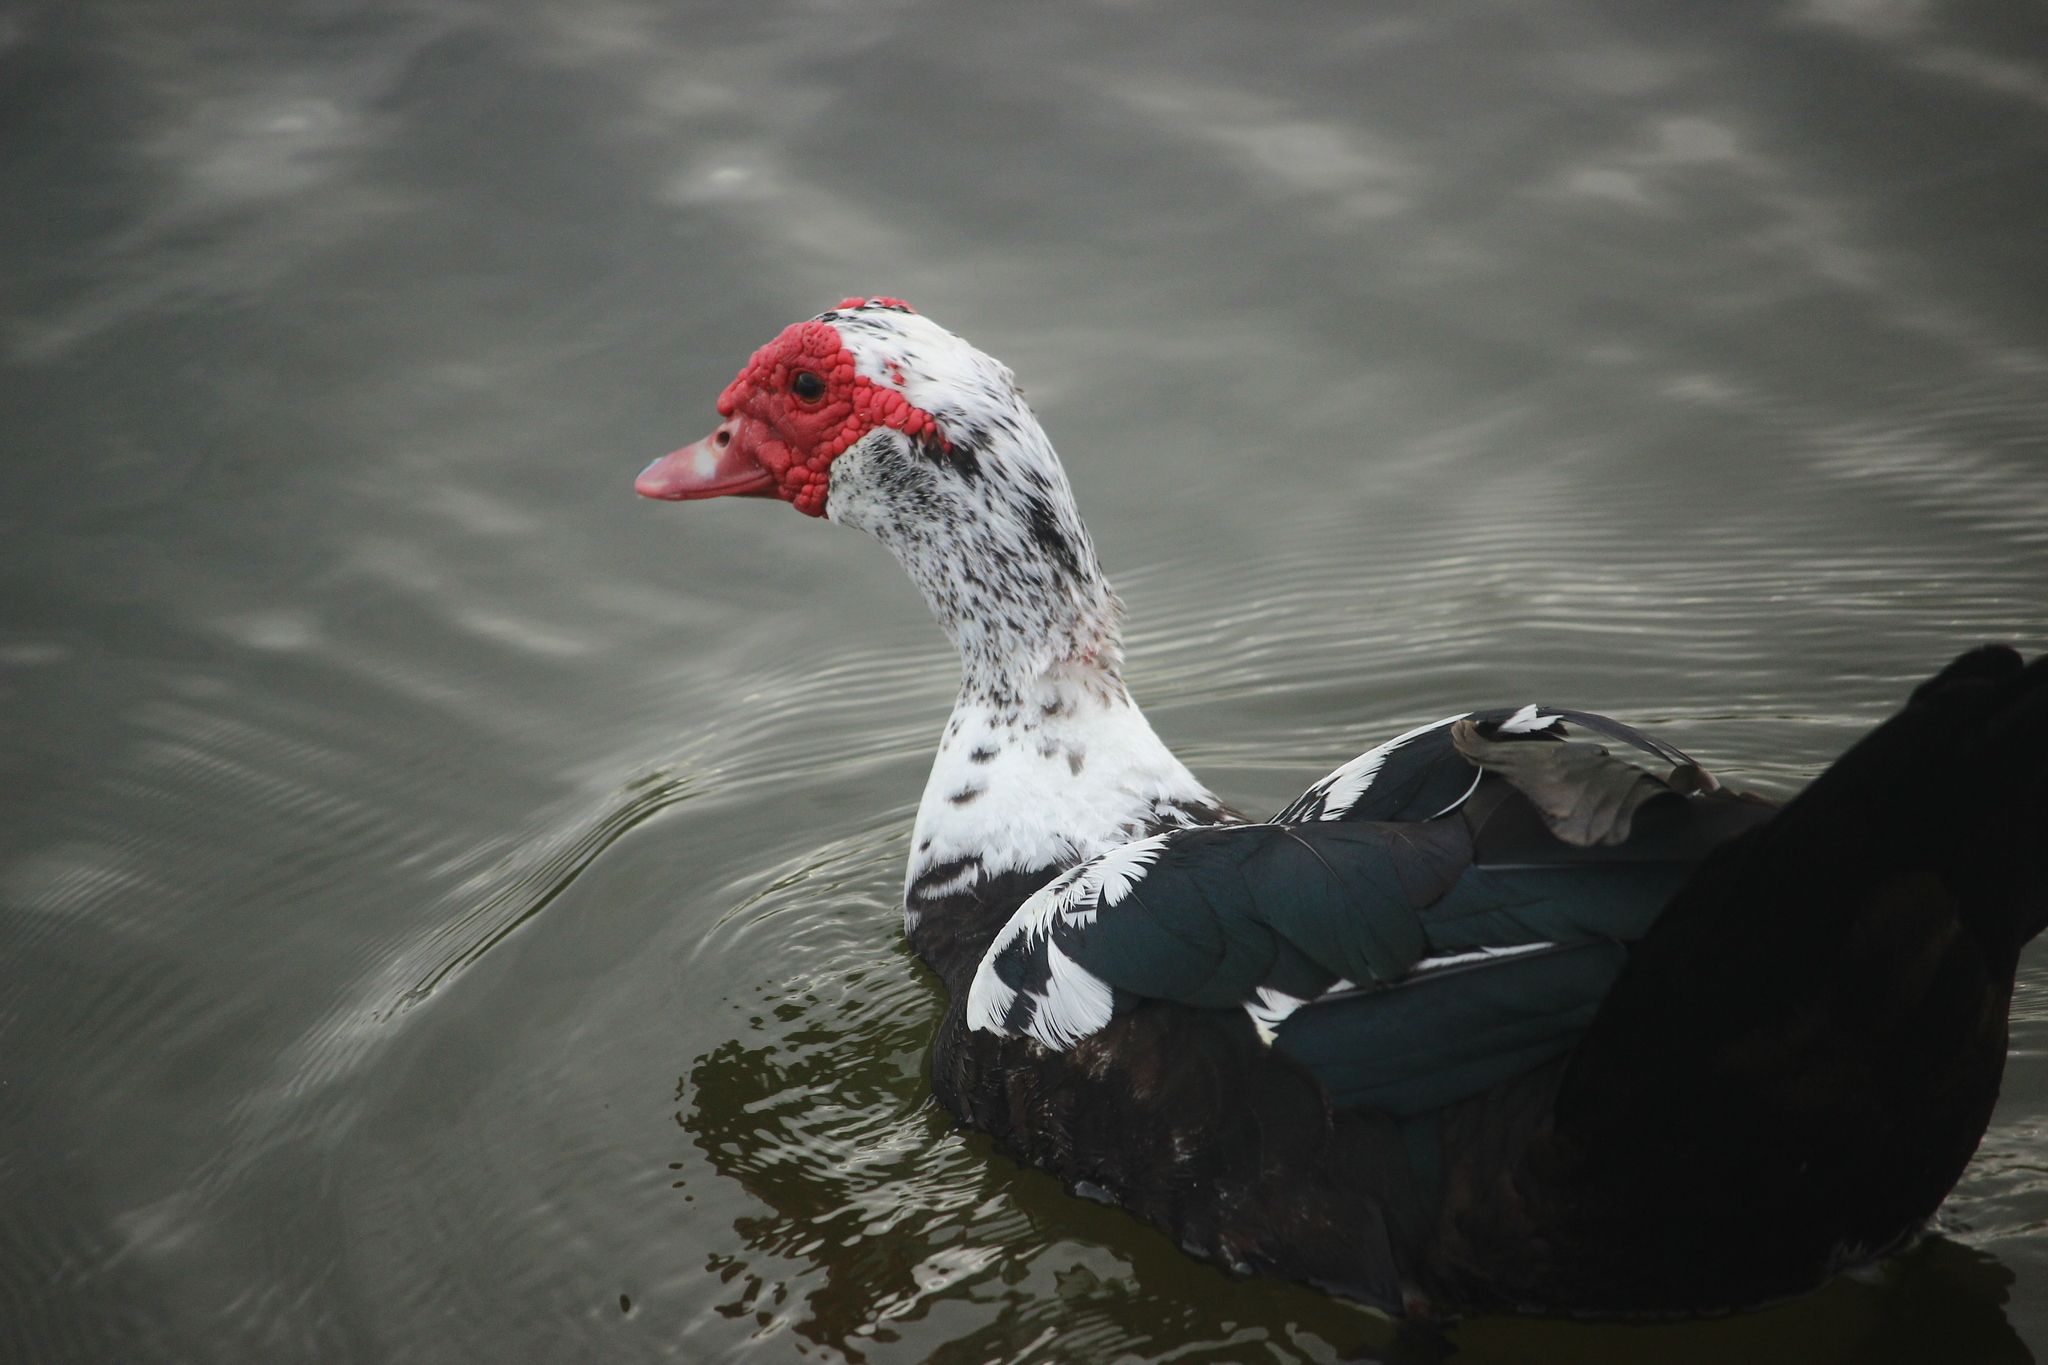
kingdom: Animalia
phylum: Chordata
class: Aves
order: Anseriformes
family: Anatidae
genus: Cairina
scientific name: Cairina moschata
